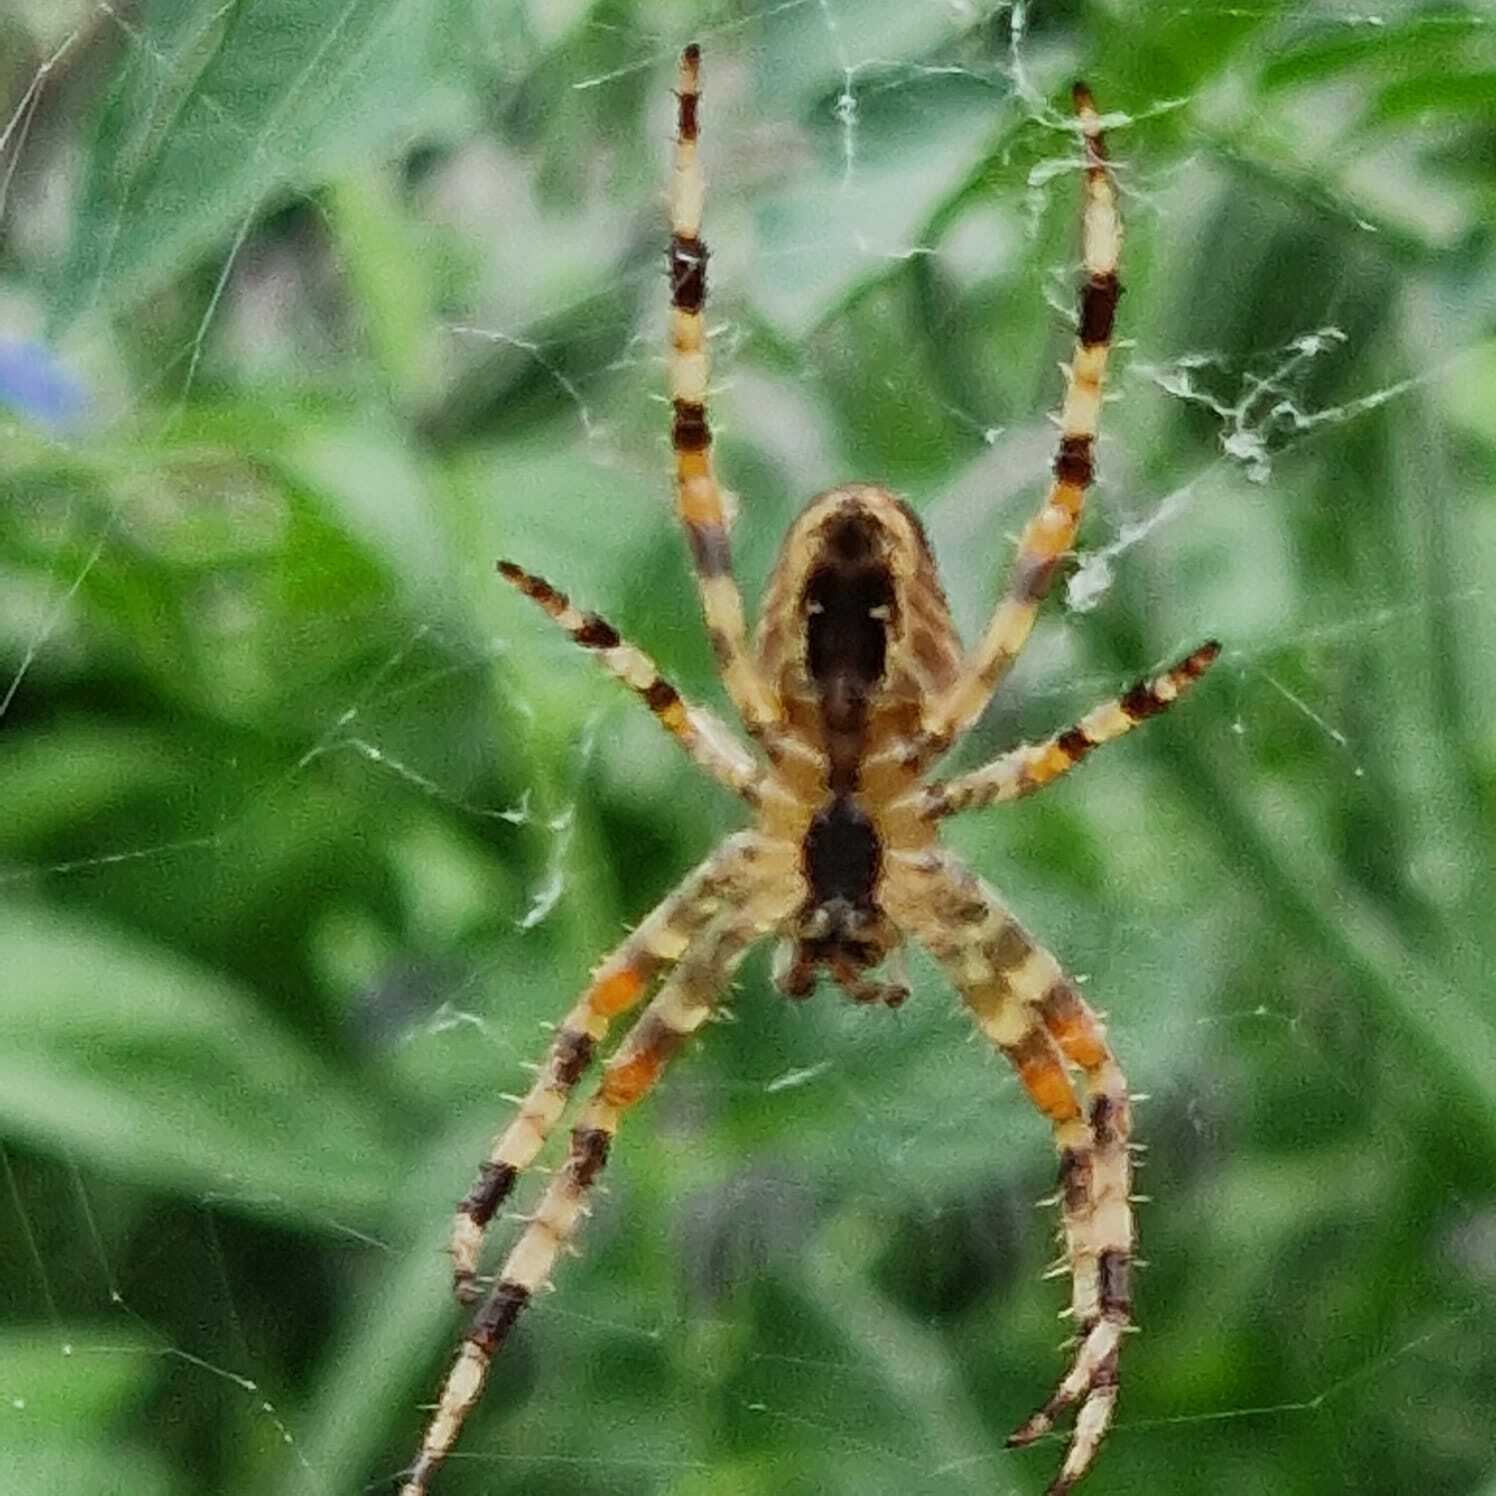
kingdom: Animalia
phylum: Arthropoda
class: Arachnida
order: Araneae
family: Araneidae
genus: Araneus
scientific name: Araneus diadematus
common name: Cross orbweaver
